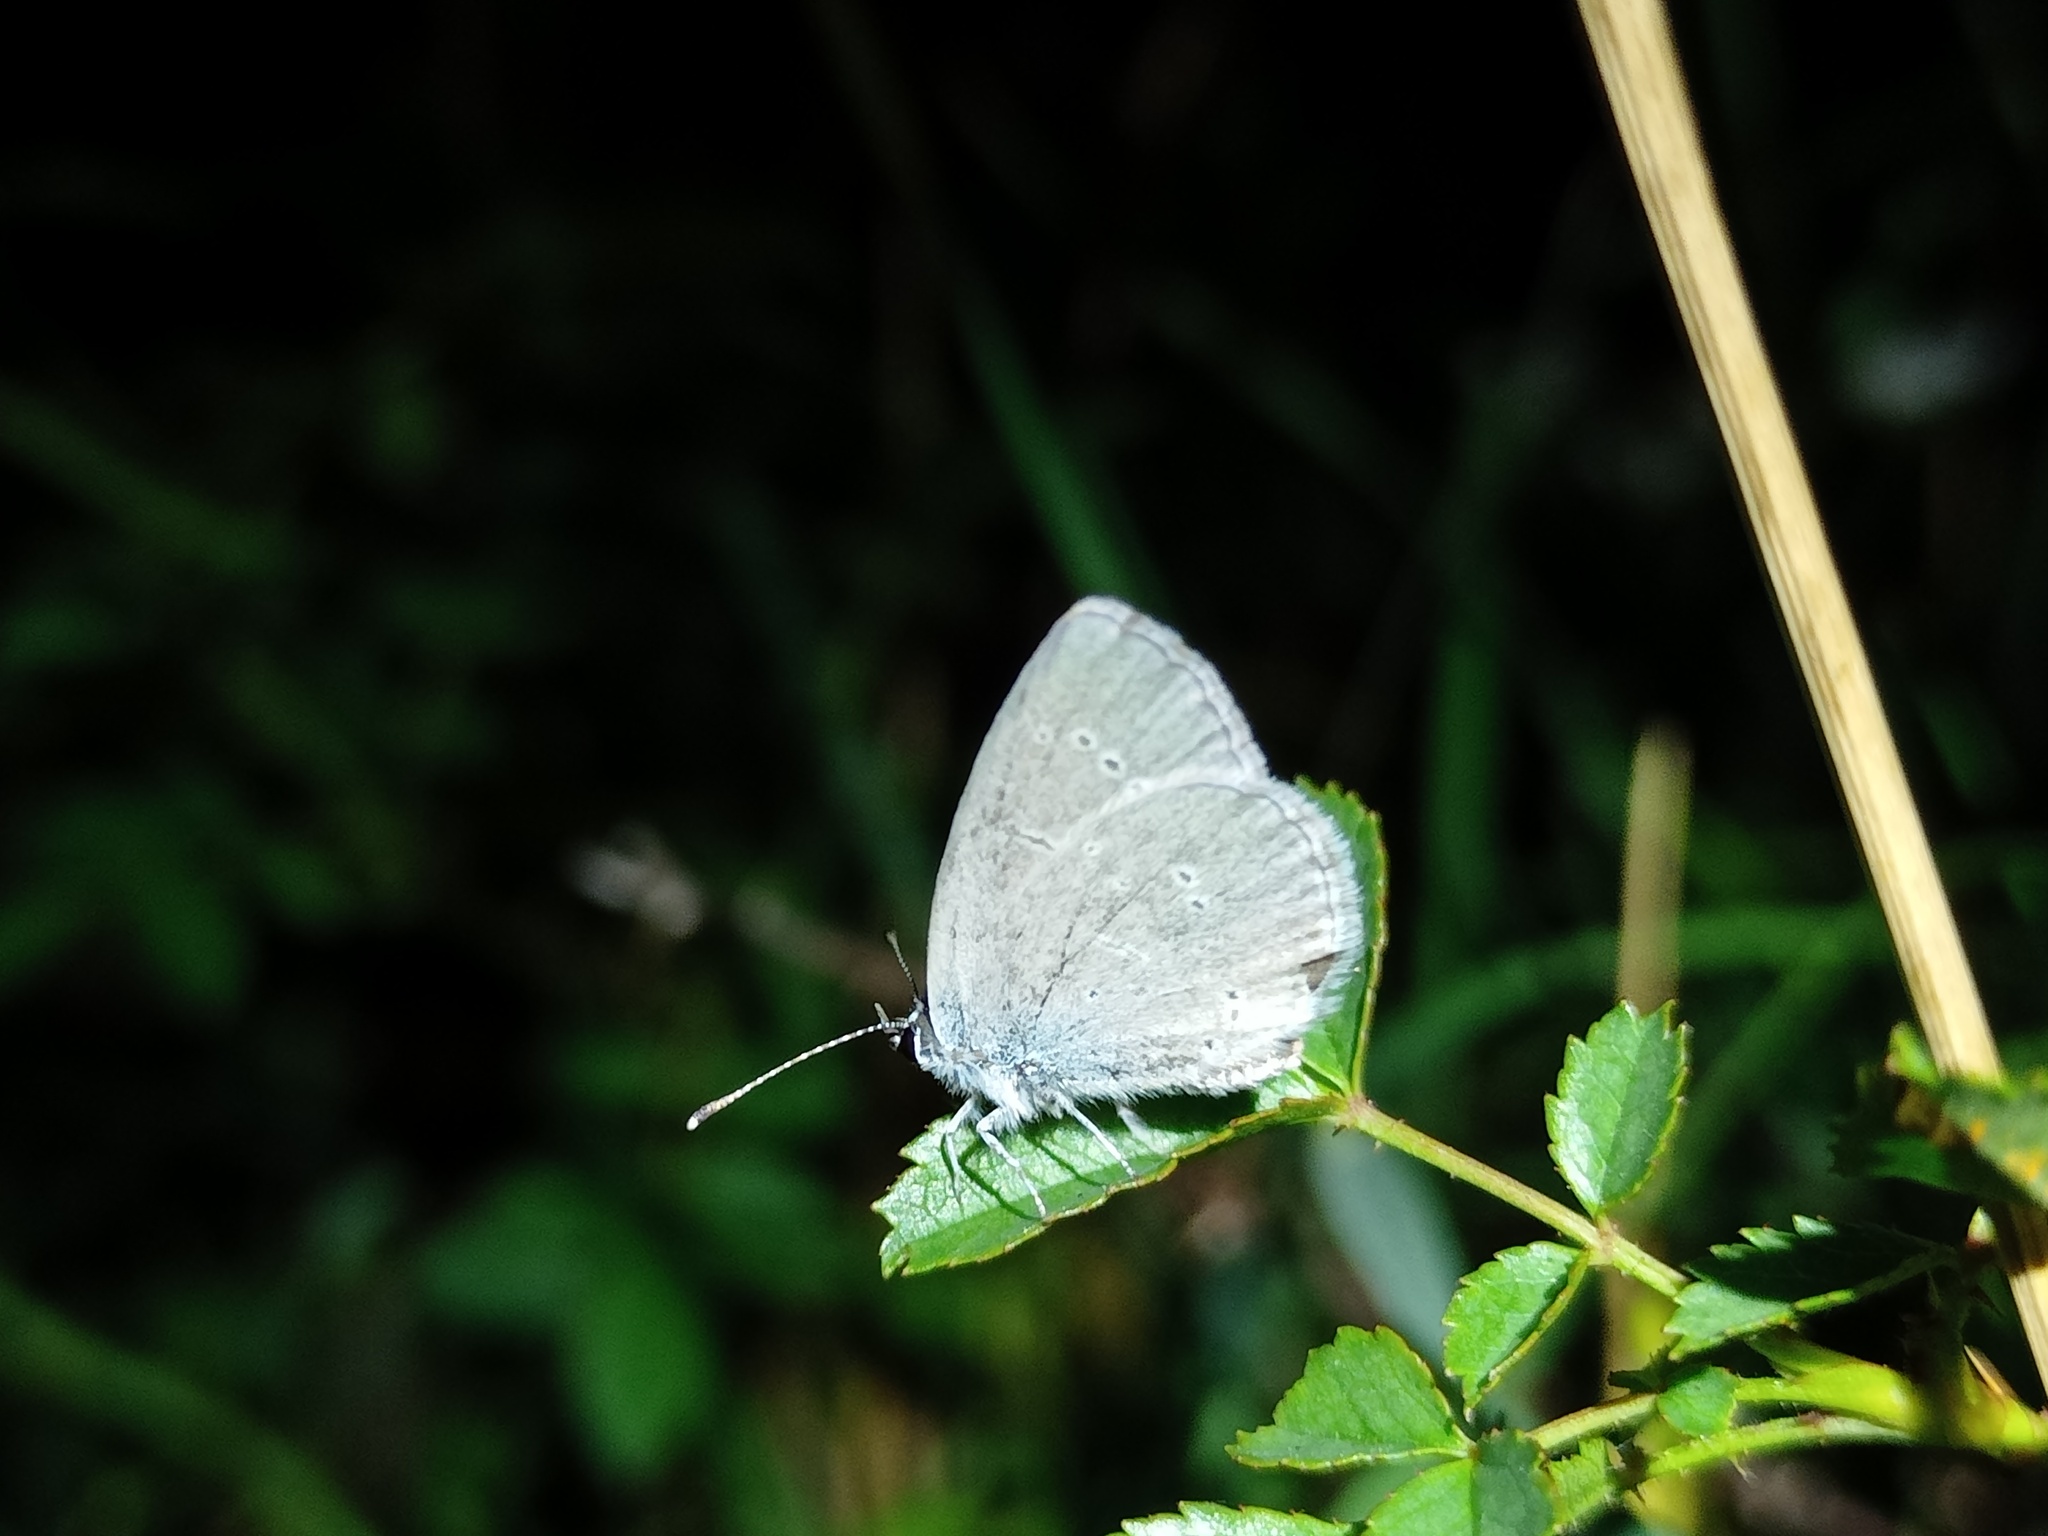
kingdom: Animalia
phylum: Arthropoda
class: Insecta
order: Lepidoptera
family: Lycaenidae
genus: Cupido
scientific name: Cupido minimus
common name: Small blue
